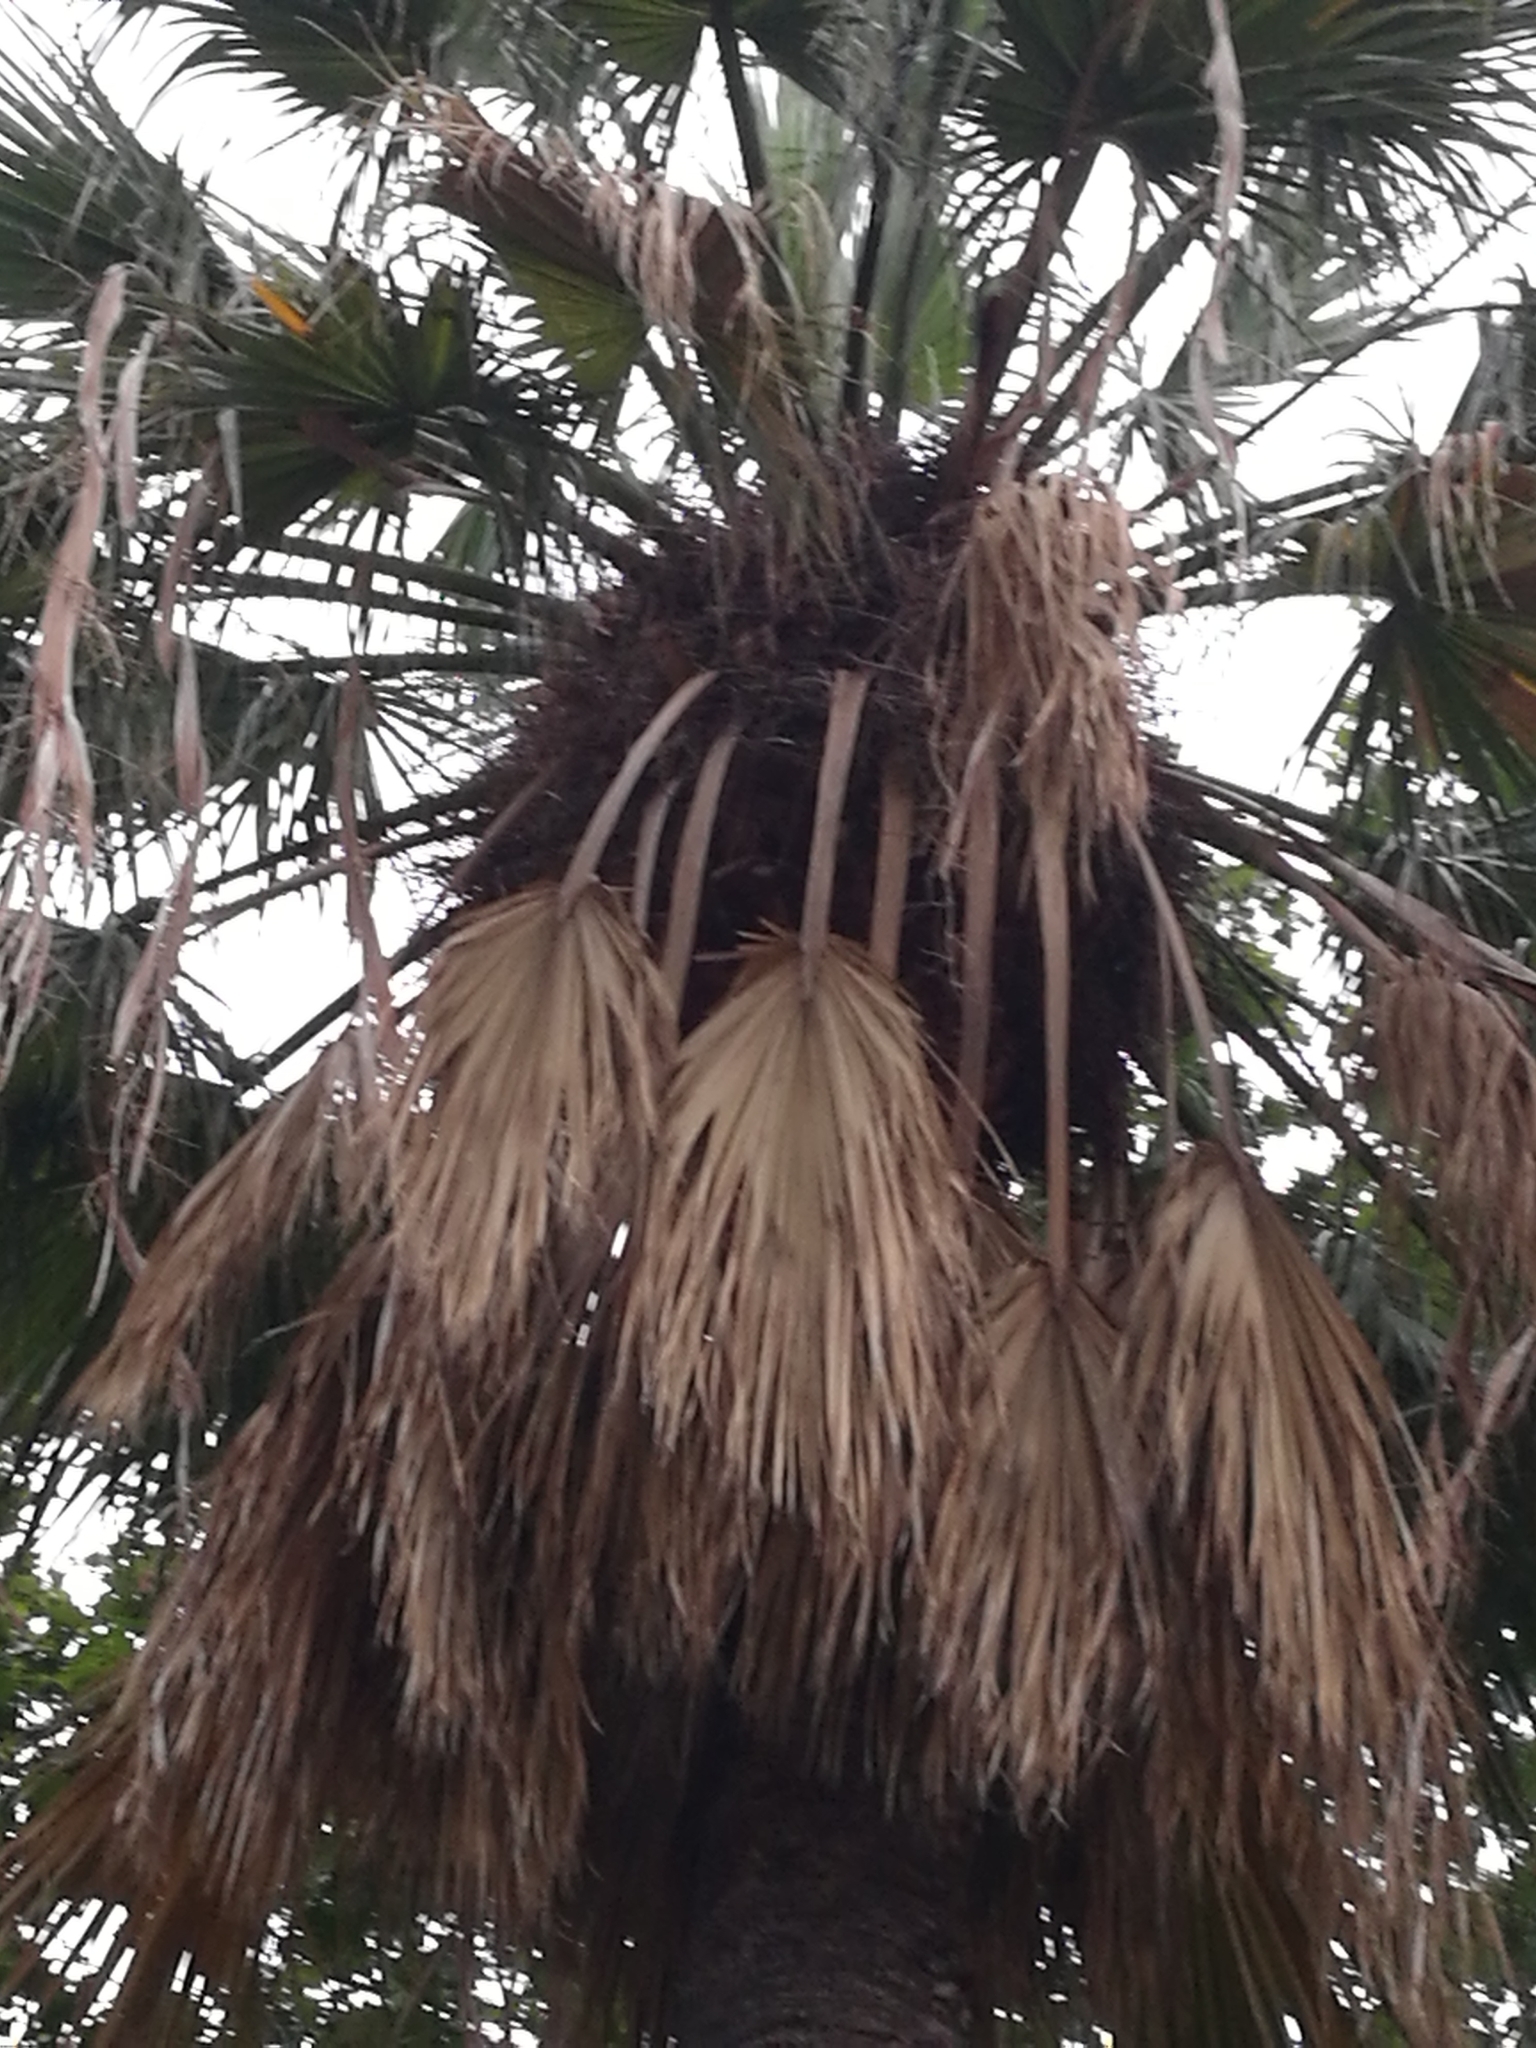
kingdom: Animalia
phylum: Chordata
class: Aves
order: Psittaciformes
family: Psittacidae
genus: Myiopsitta
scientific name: Myiopsitta monachus
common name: Monk parakeet
